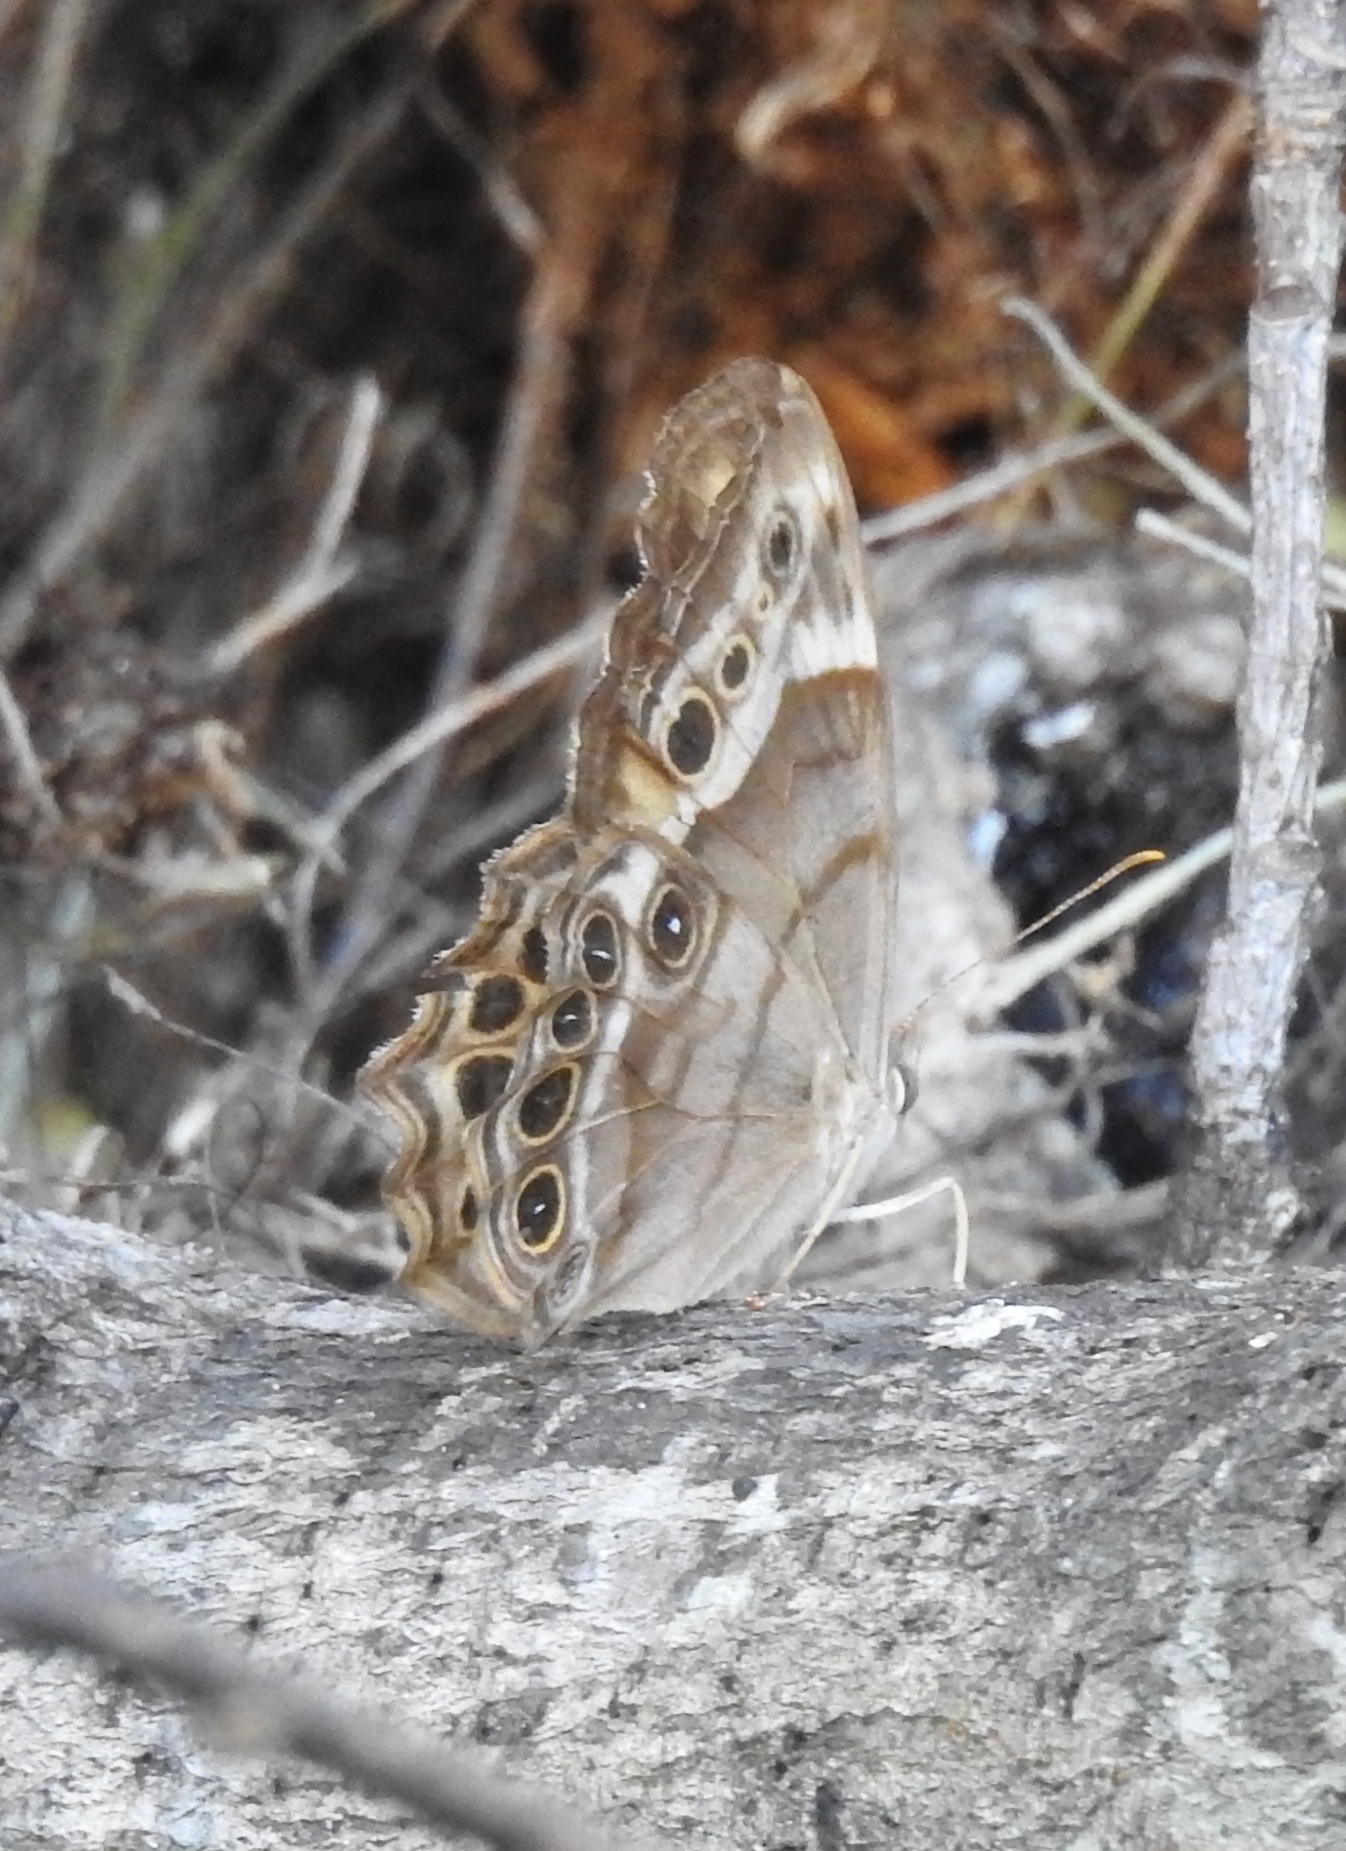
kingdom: Animalia
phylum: Arthropoda
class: Insecta
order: Lepidoptera
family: Nymphalidae
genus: Enodia
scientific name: Enodia portlandia
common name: Southern pearly-eye
